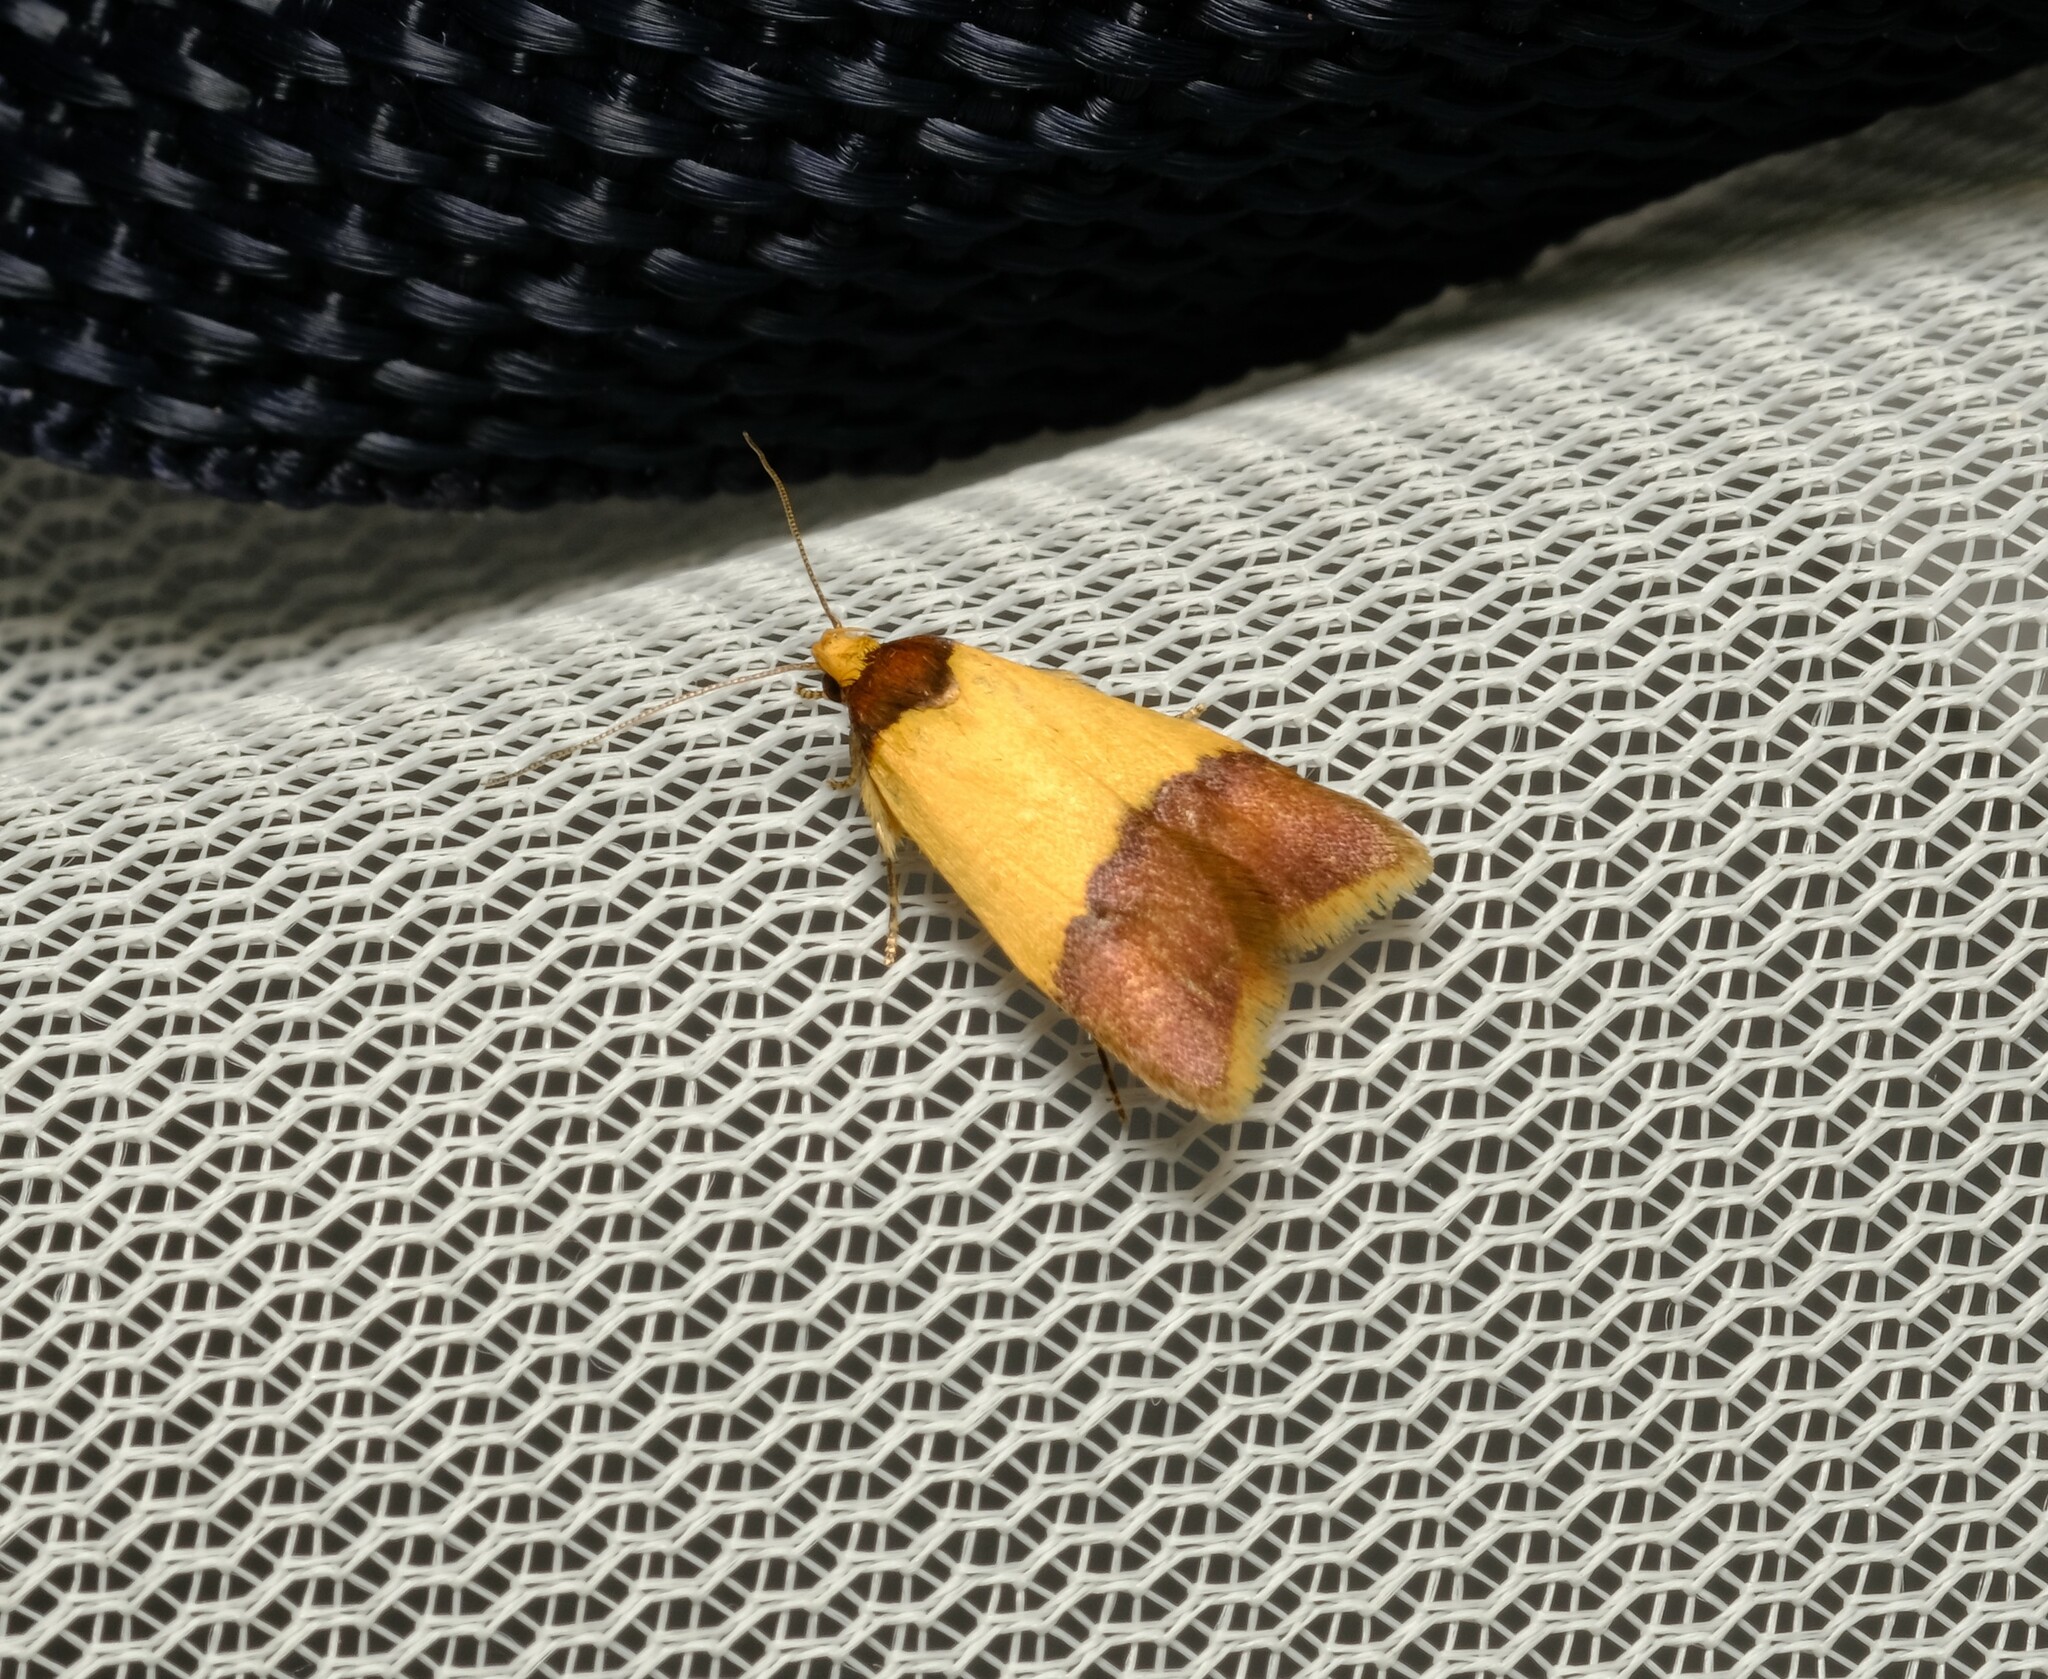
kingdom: Animalia
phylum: Arthropoda
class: Insecta
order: Lepidoptera
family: Oecophoridae
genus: Heteroteucha
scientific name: Heteroteucha dichroella
